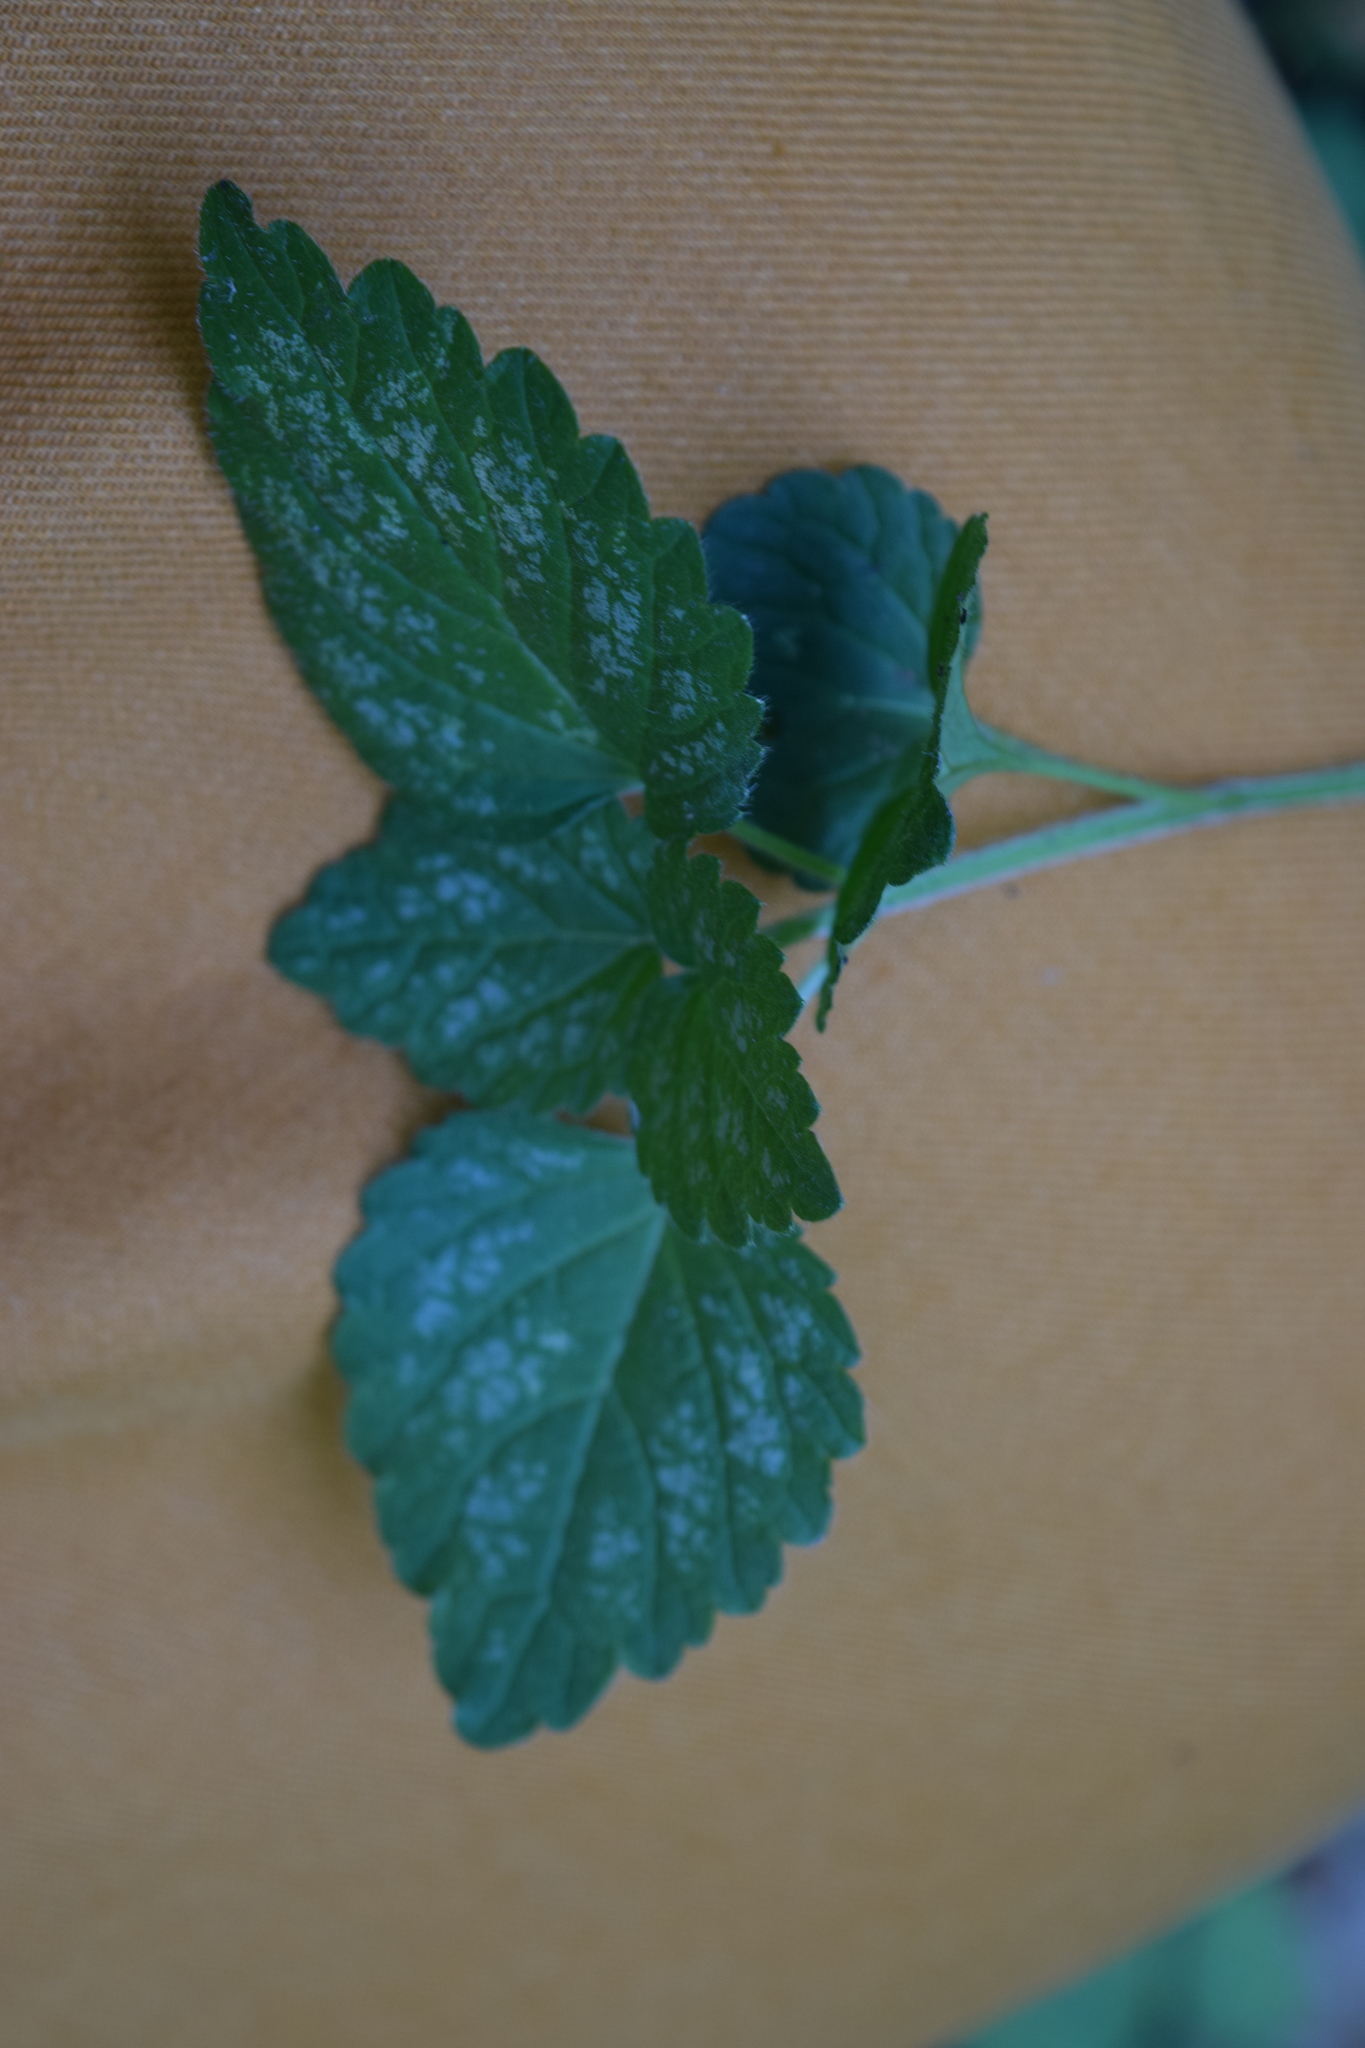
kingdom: Plantae
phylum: Tracheophyta
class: Magnoliopsida
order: Lamiales
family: Lamiaceae
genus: Lamium
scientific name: Lamium galeobdolon
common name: Yellow archangel
